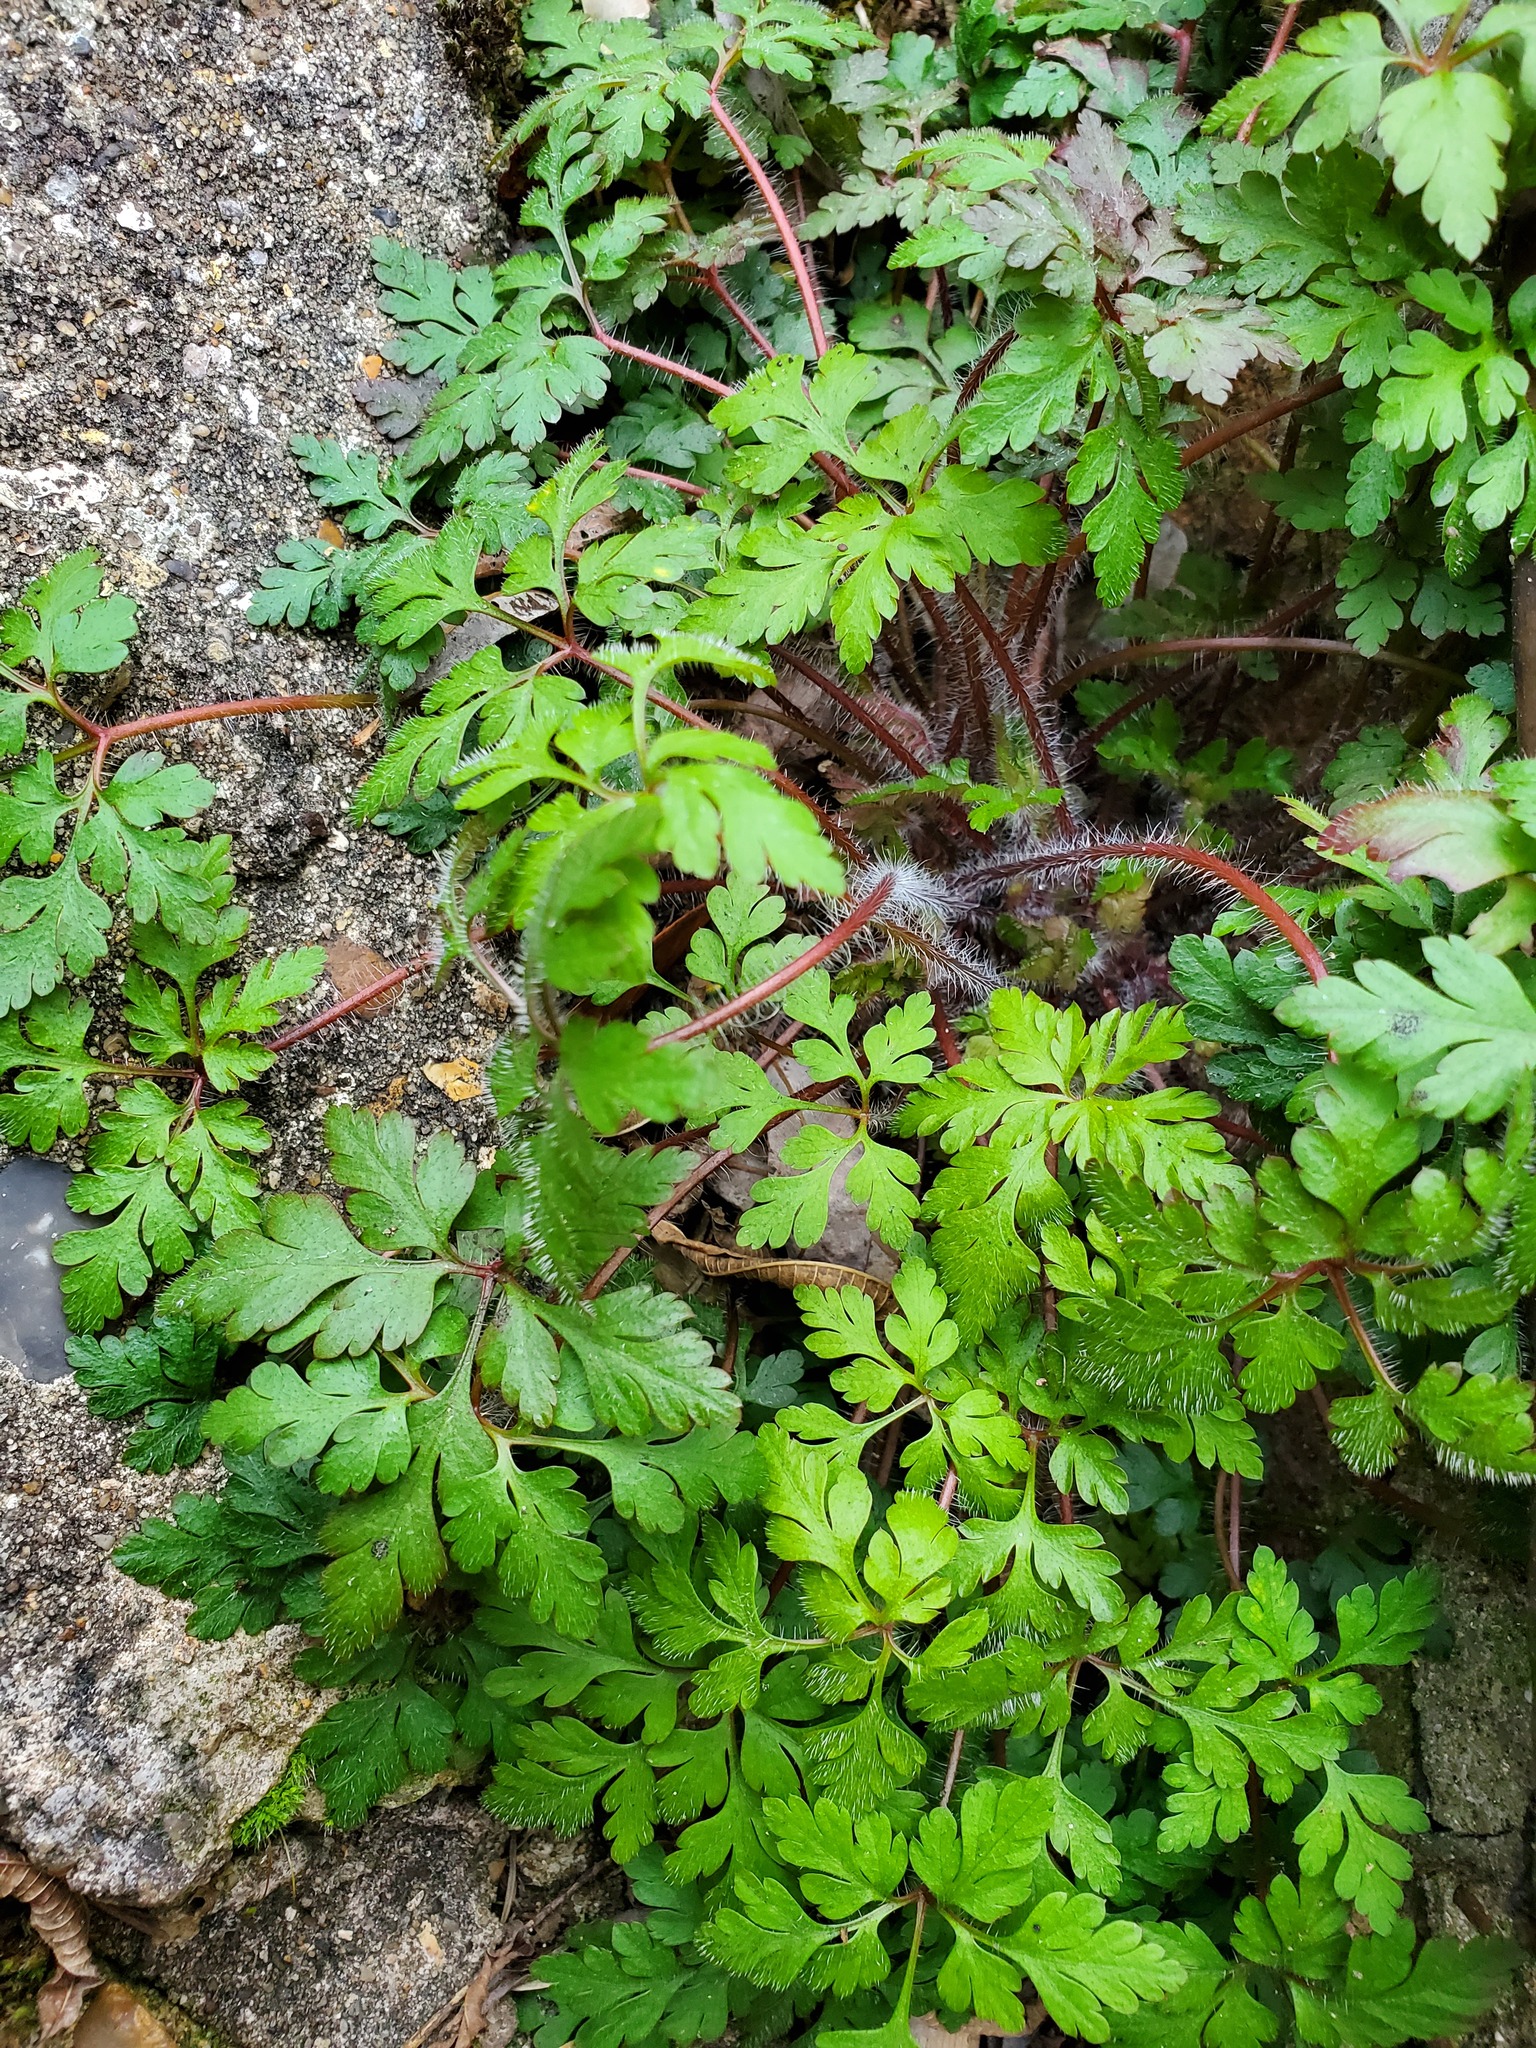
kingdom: Plantae
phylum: Tracheophyta
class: Magnoliopsida
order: Geraniales
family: Geraniaceae
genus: Geranium
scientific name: Geranium robertianum
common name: Herb-robert
